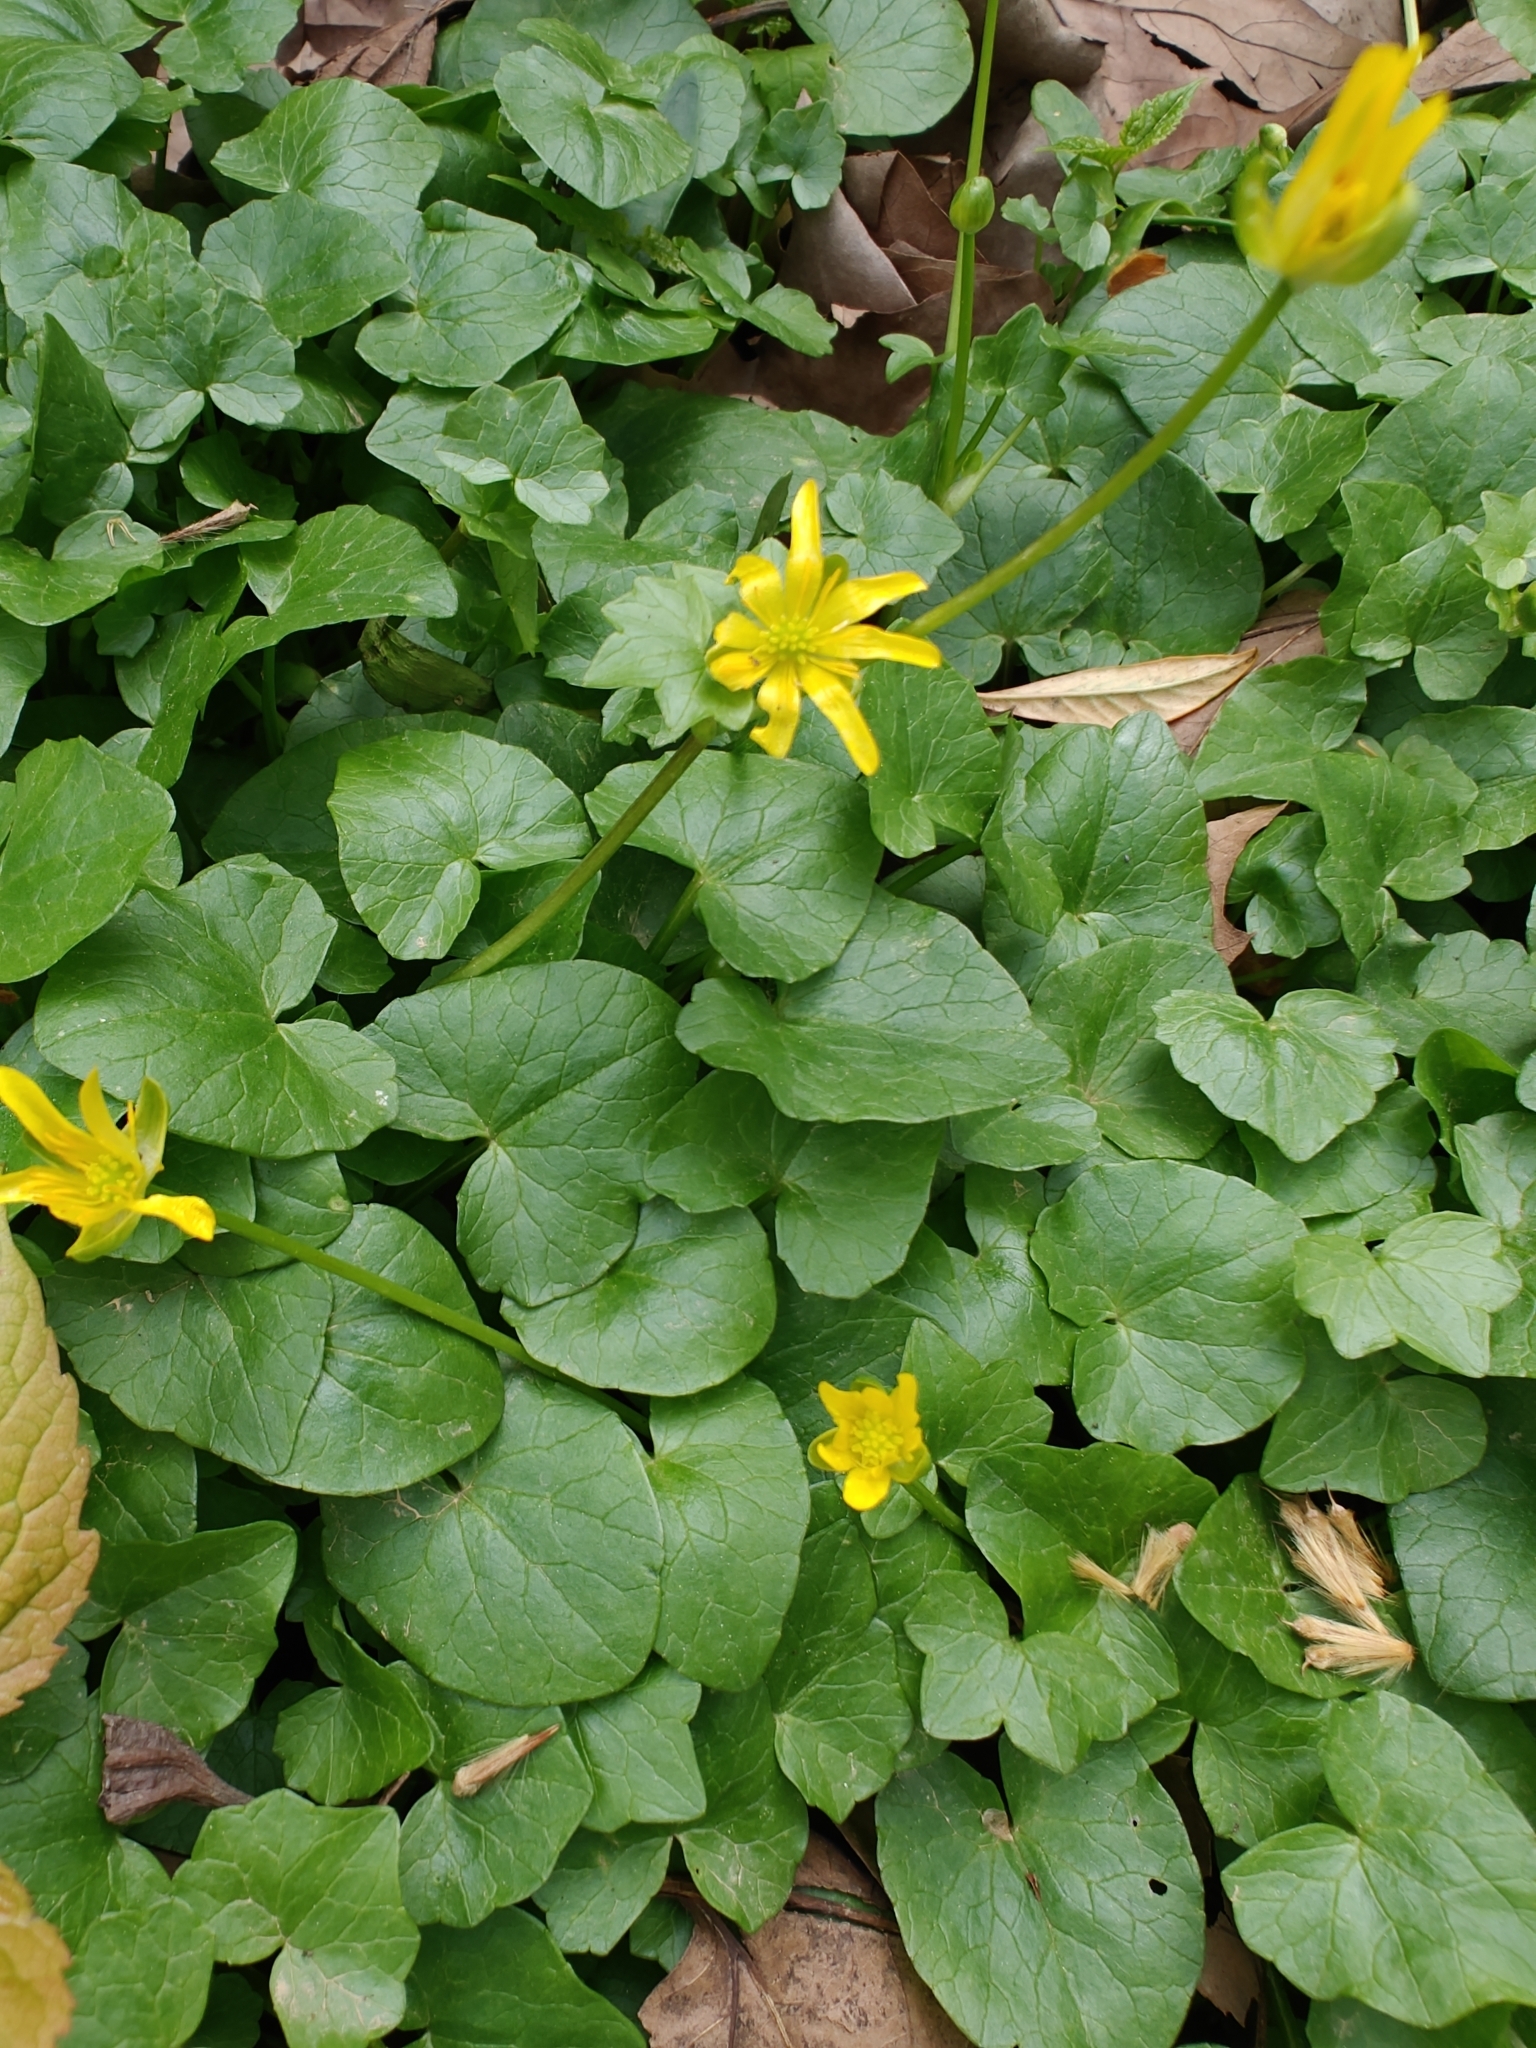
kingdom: Plantae
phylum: Tracheophyta
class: Magnoliopsida
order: Ranunculales
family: Ranunculaceae
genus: Ficaria
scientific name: Ficaria verna
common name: Lesser celandine
